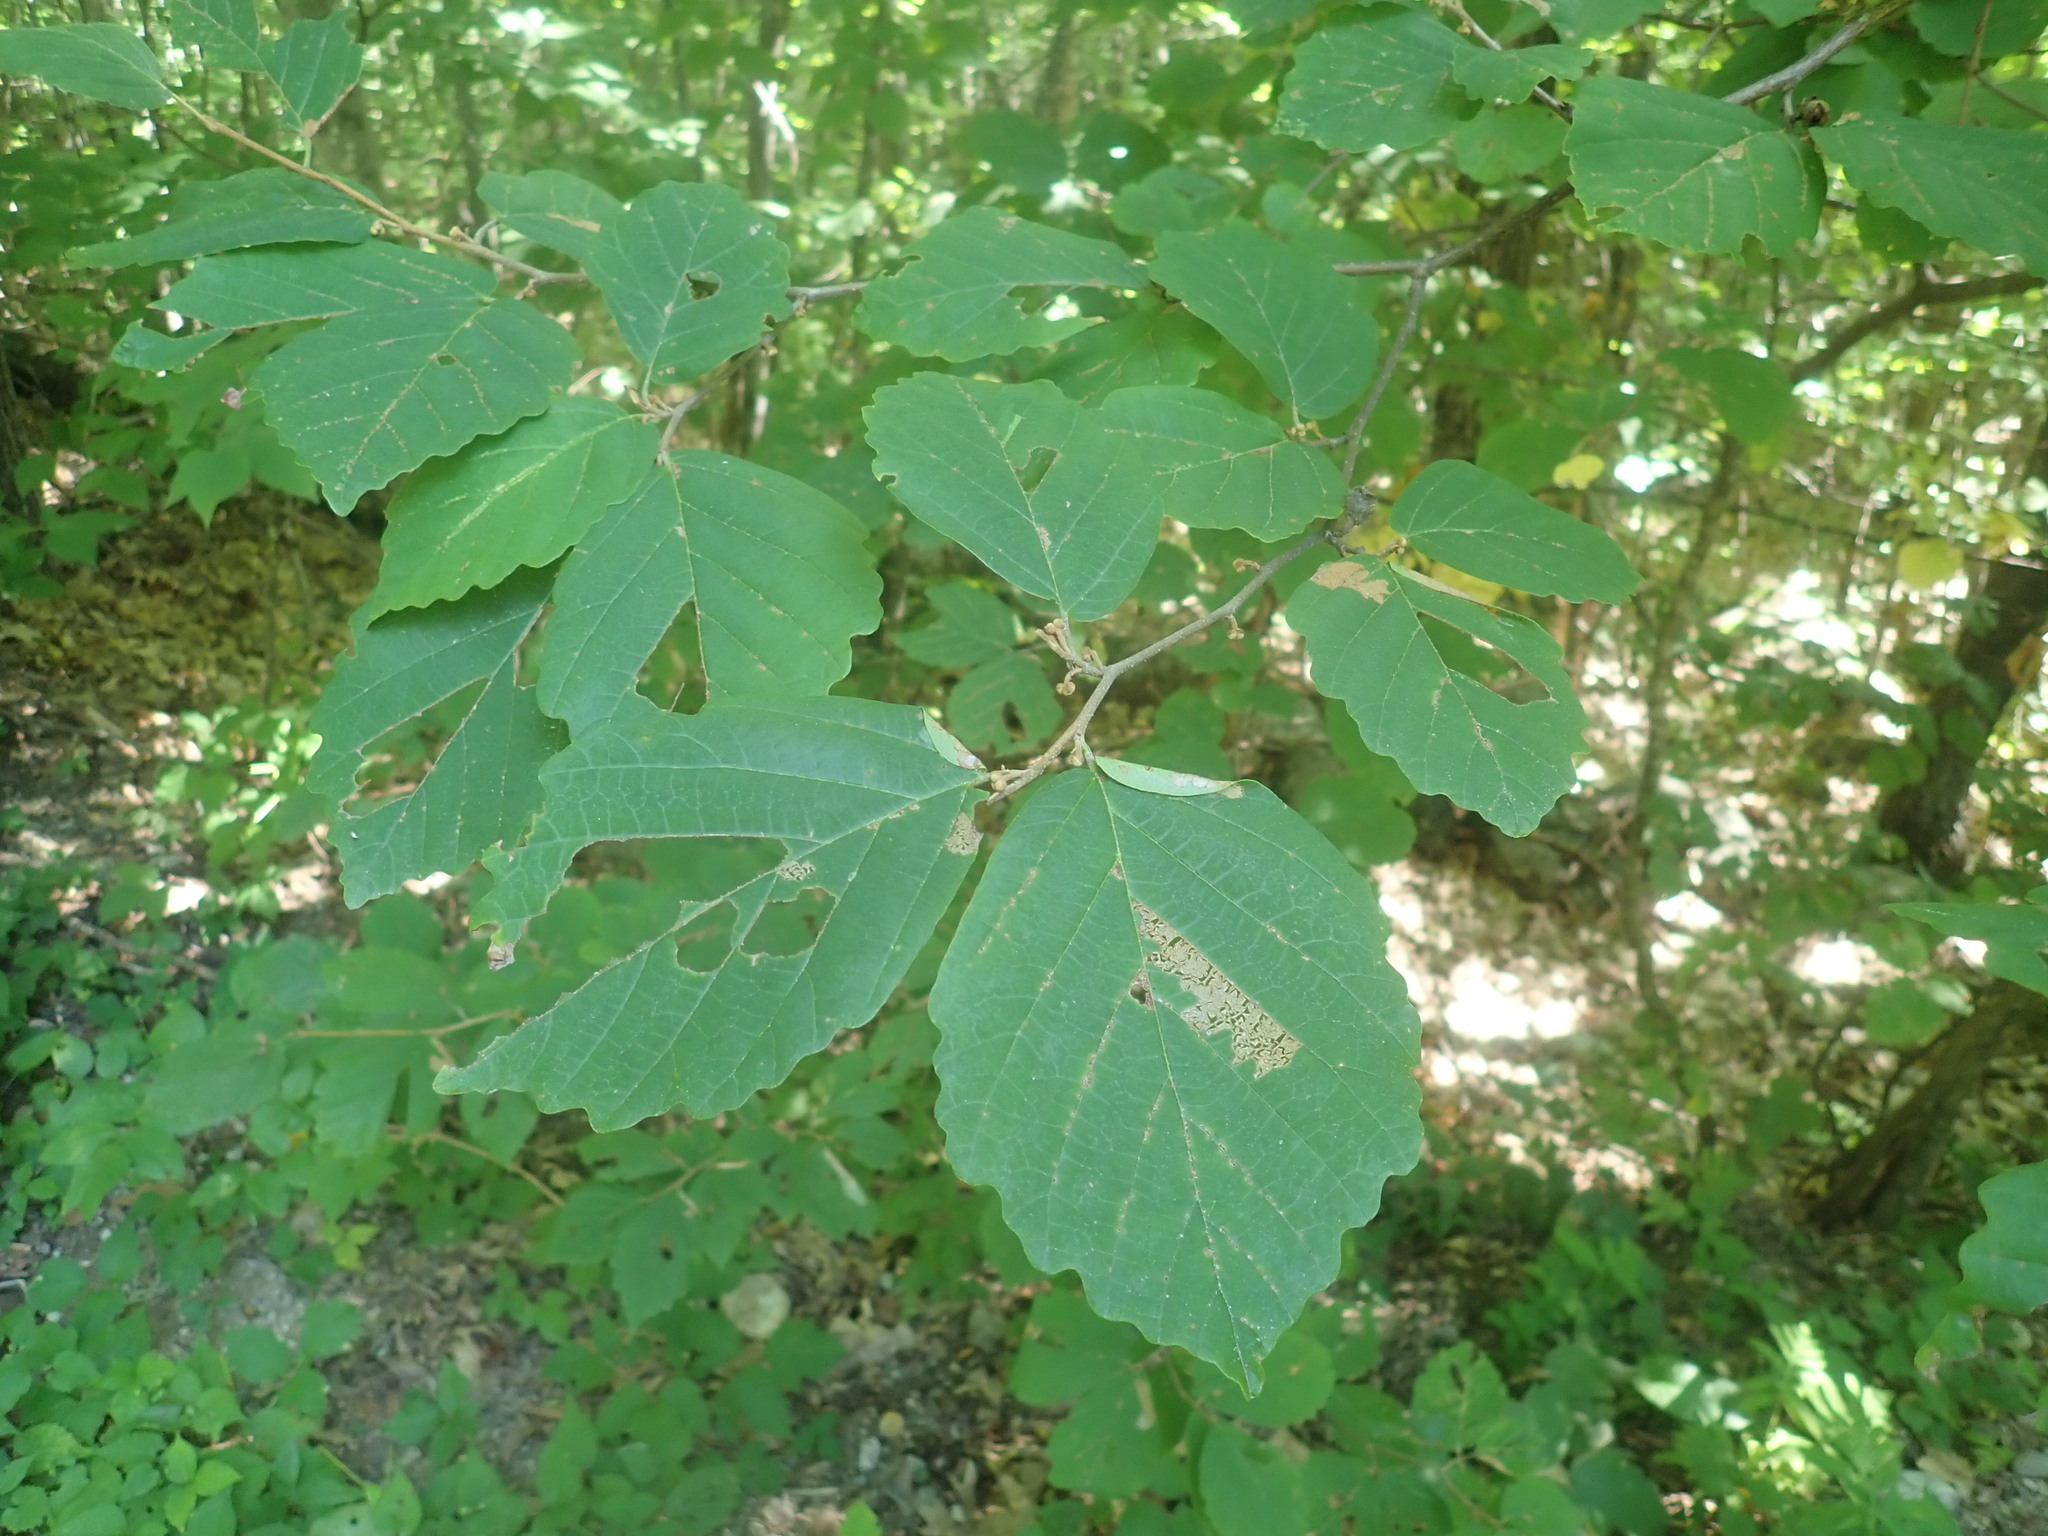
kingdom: Plantae
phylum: Tracheophyta
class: Magnoliopsida
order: Saxifragales
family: Hamamelidaceae
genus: Hamamelis
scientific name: Hamamelis virginiana
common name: Witch-hazel
